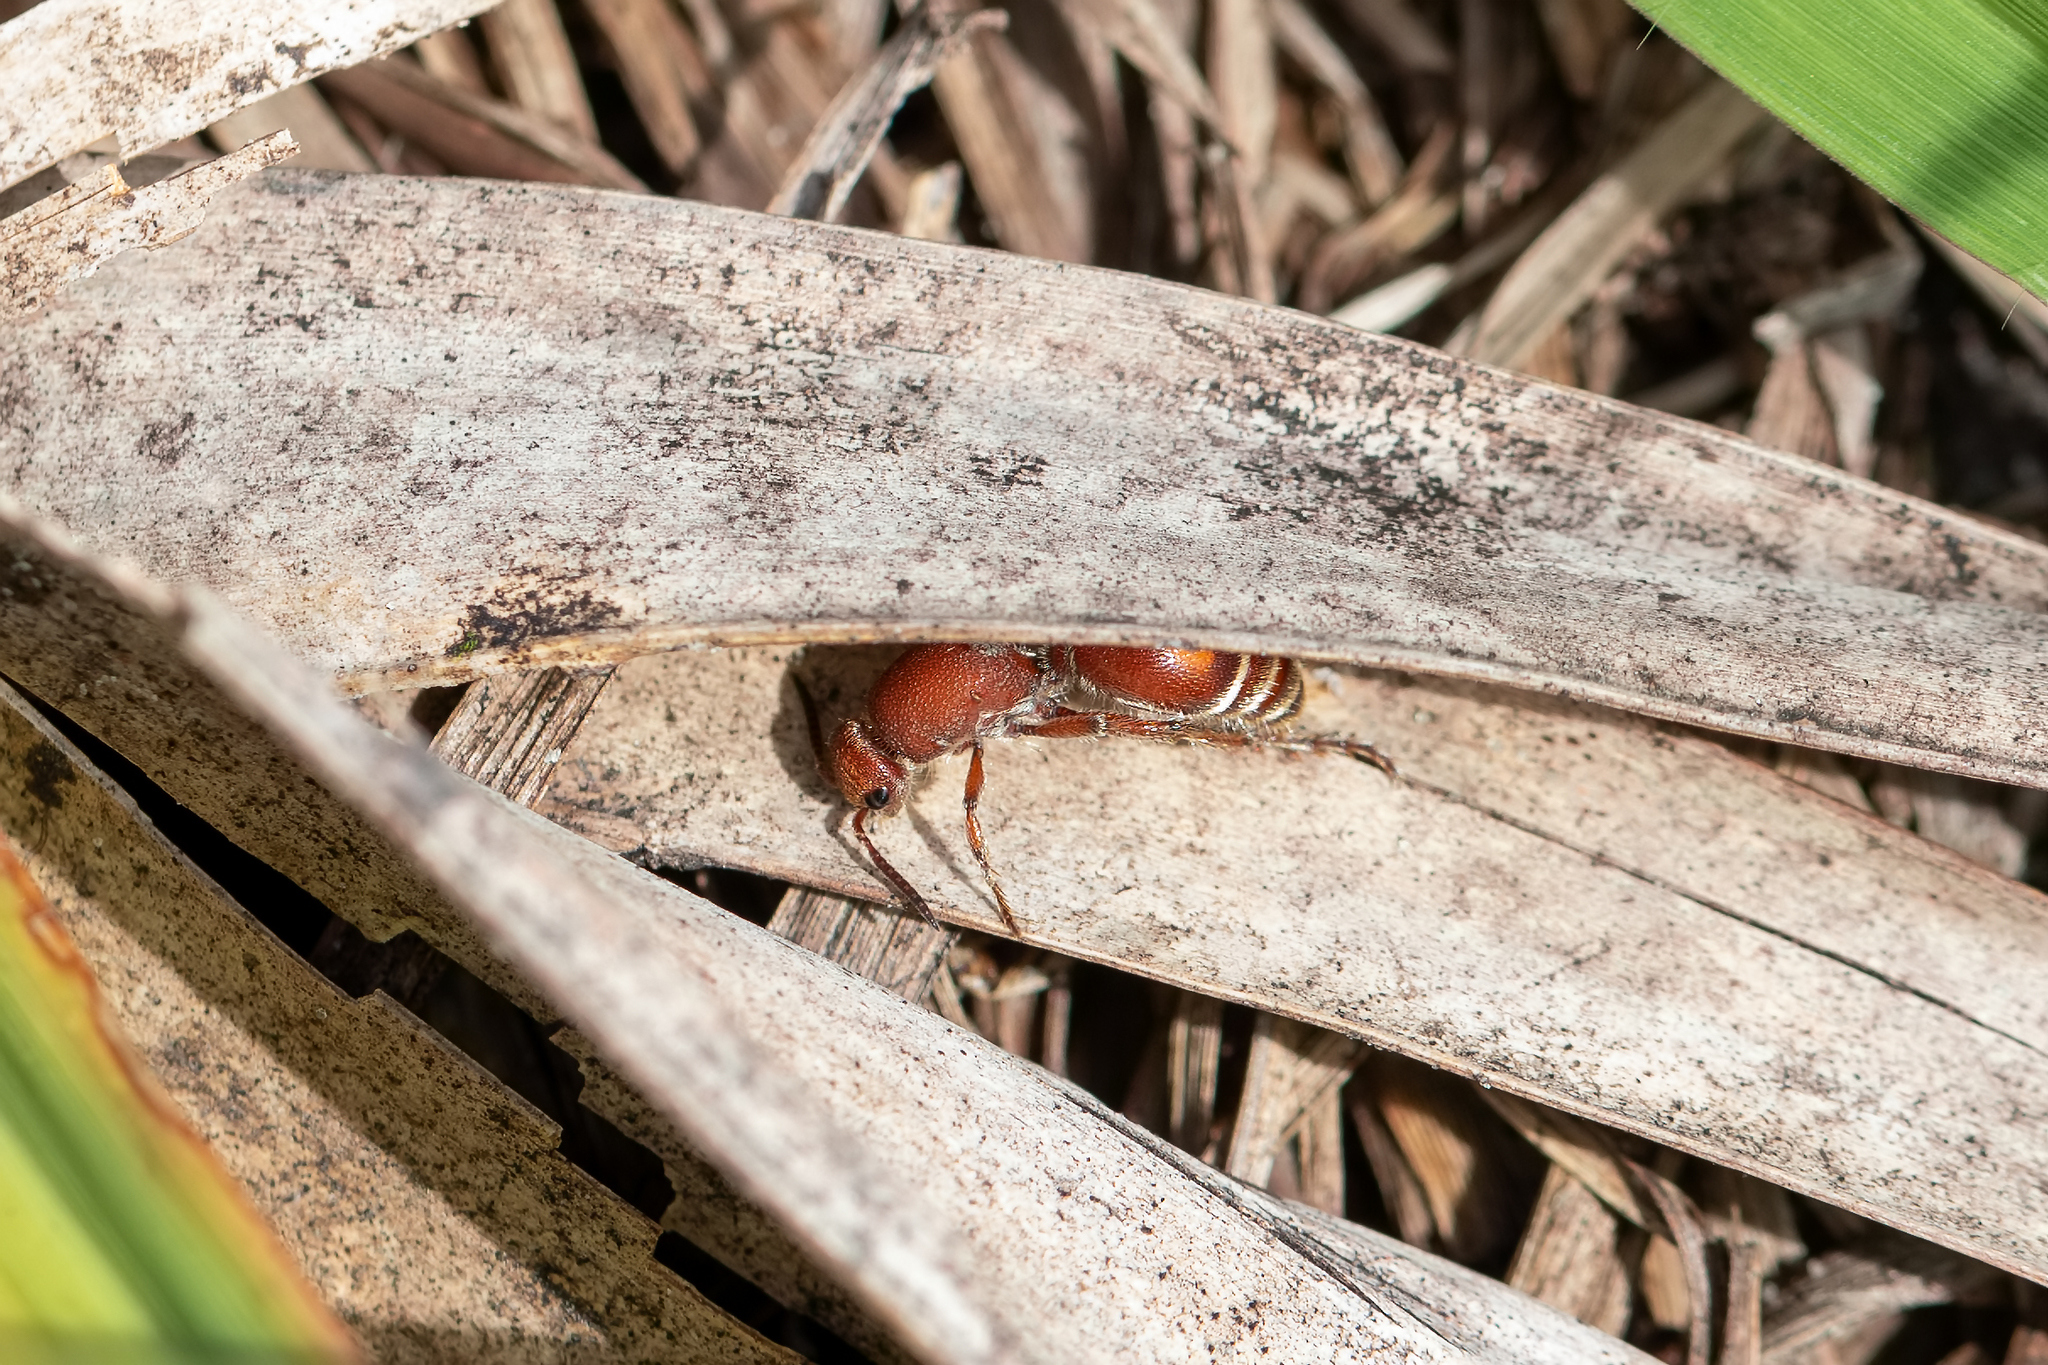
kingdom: Animalia
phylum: Arthropoda
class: Insecta
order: Hymenoptera
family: Mutillidae
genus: Dasymutilla
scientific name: Dasymutilla
